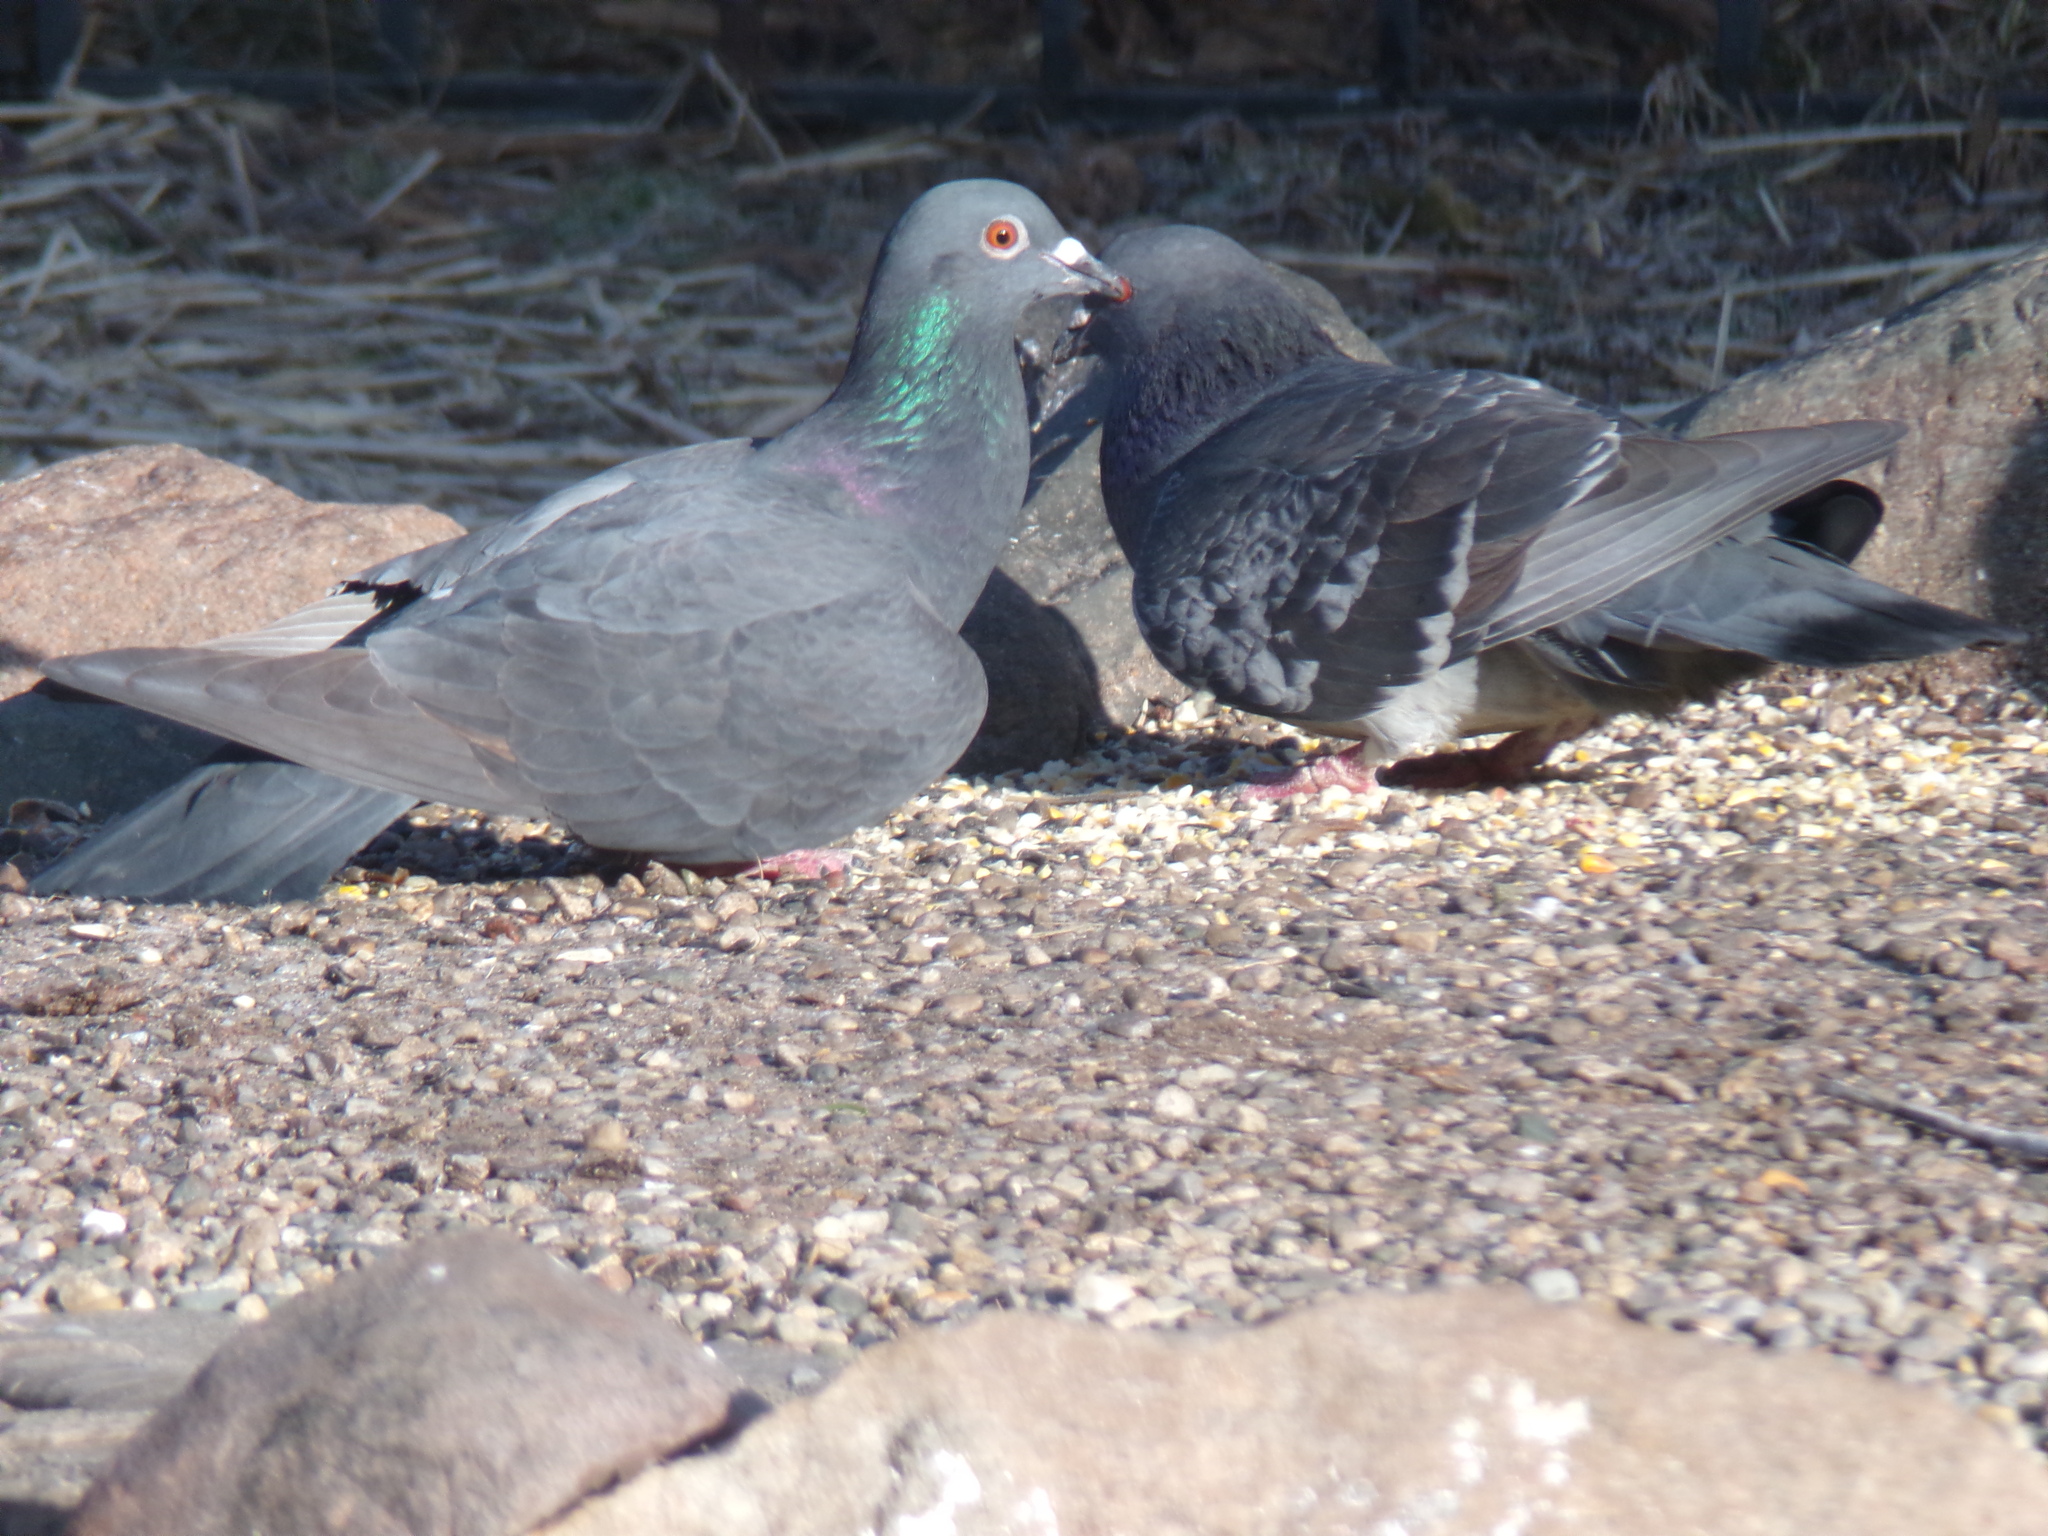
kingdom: Animalia
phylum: Chordata
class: Aves
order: Columbiformes
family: Columbidae
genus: Columba
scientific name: Columba livia
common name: Rock pigeon
